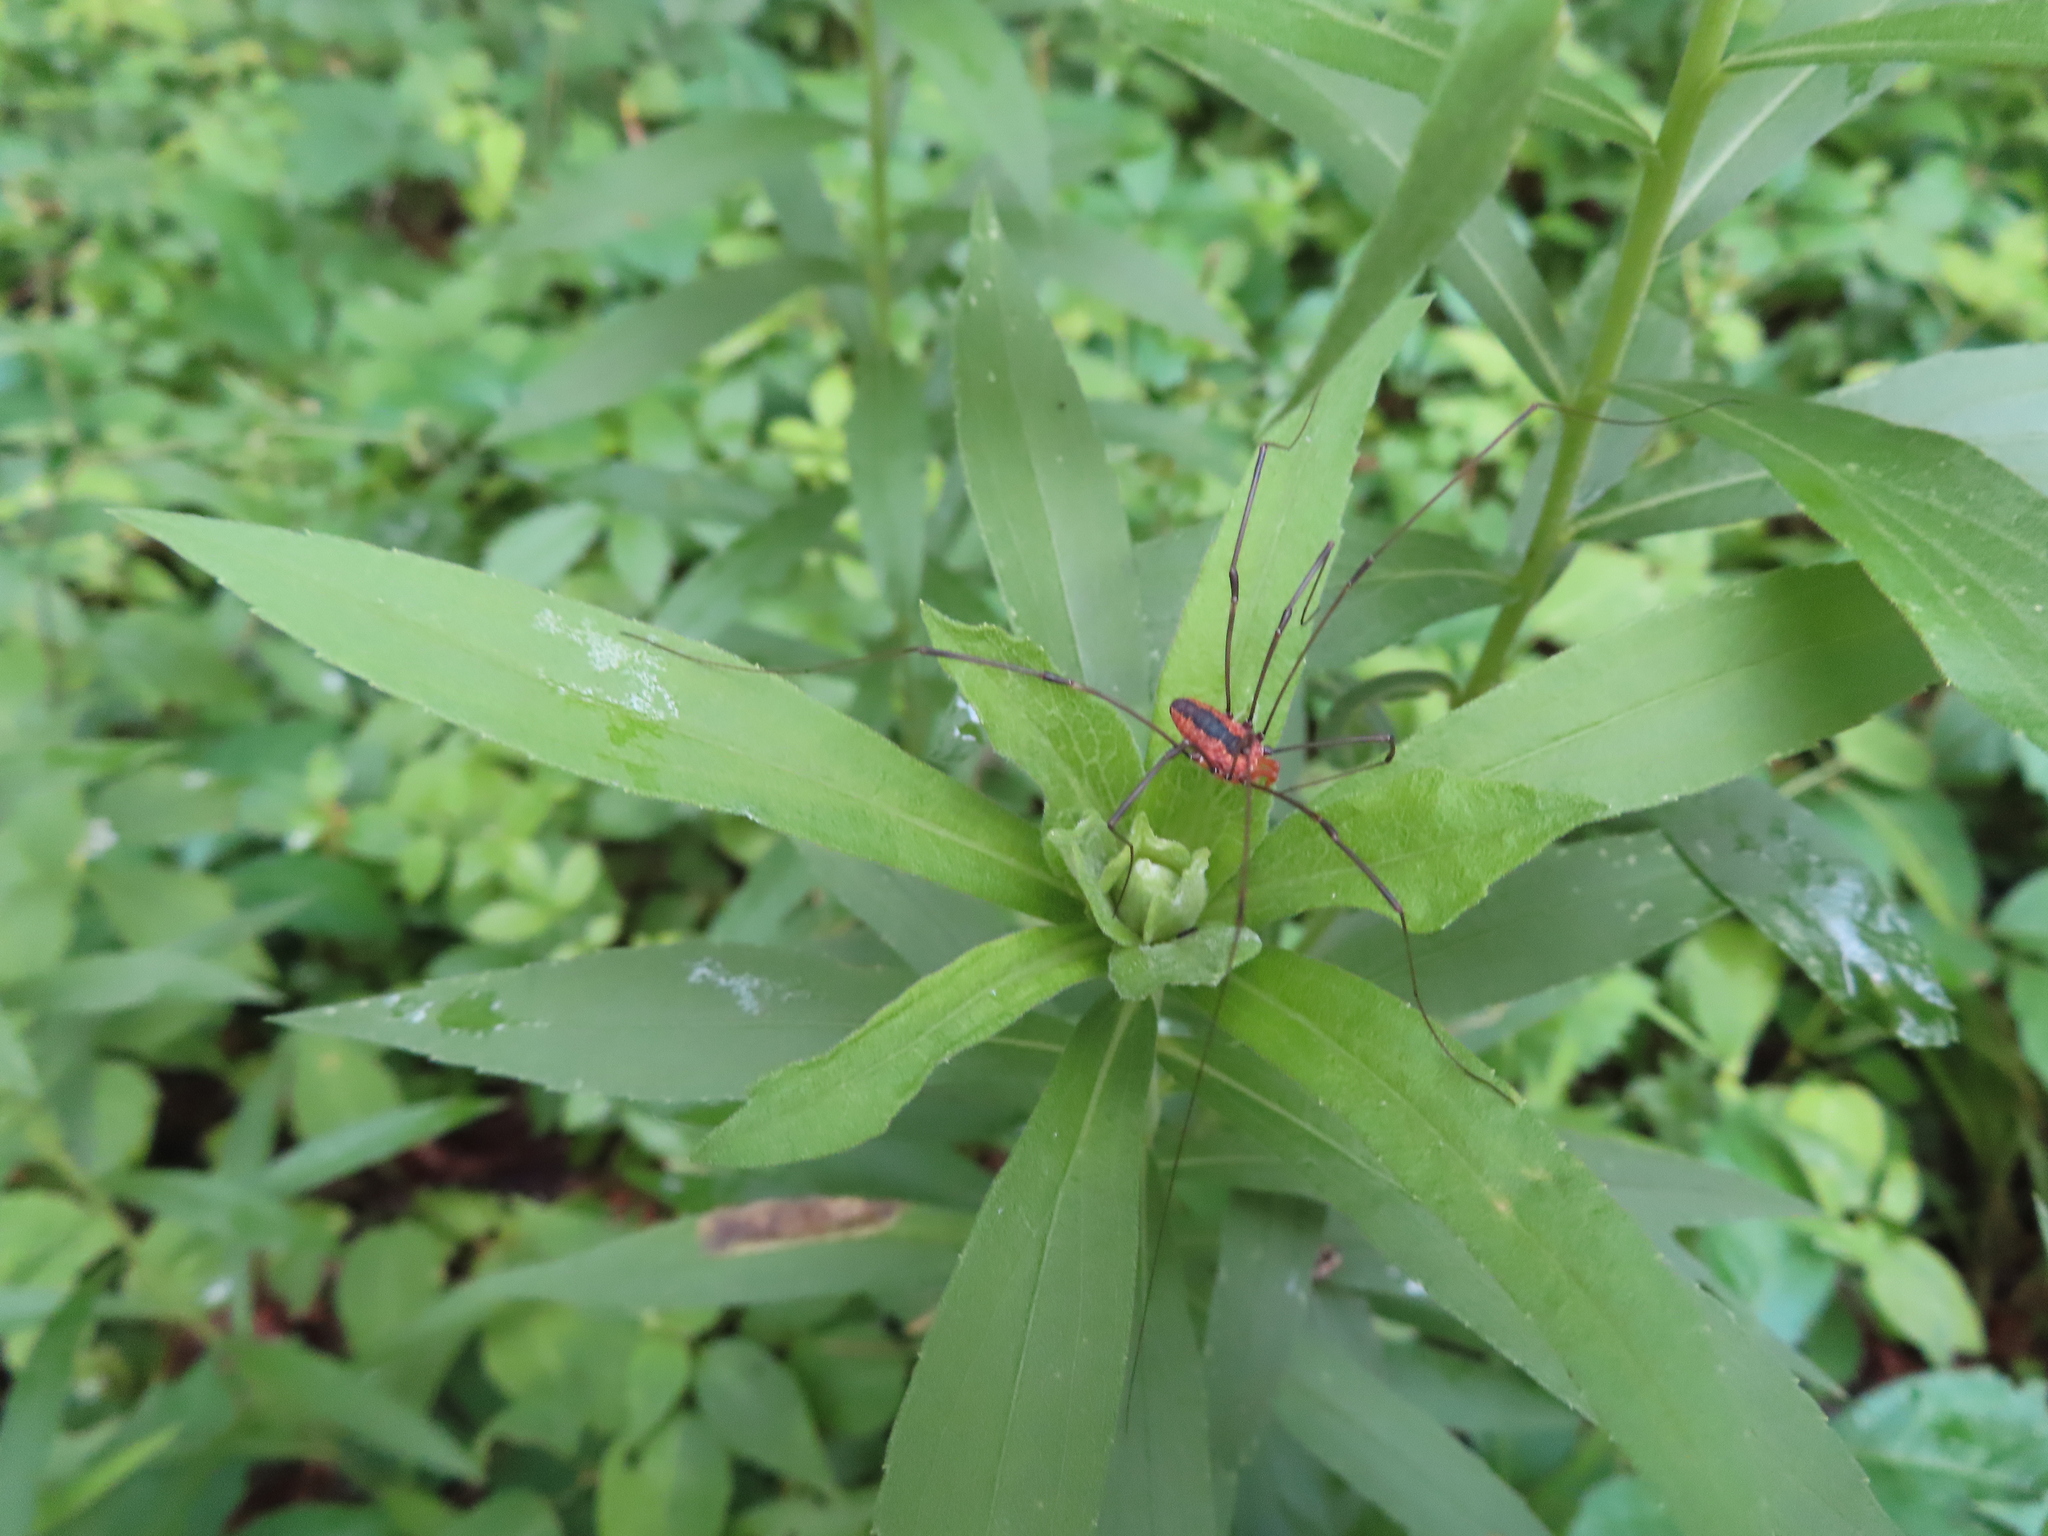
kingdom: Animalia
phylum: Arthropoda
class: Arachnida
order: Opiliones
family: Sclerosomatidae
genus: Leiobunum
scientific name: Leiobunum vittatum
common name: Eastern harvestman
